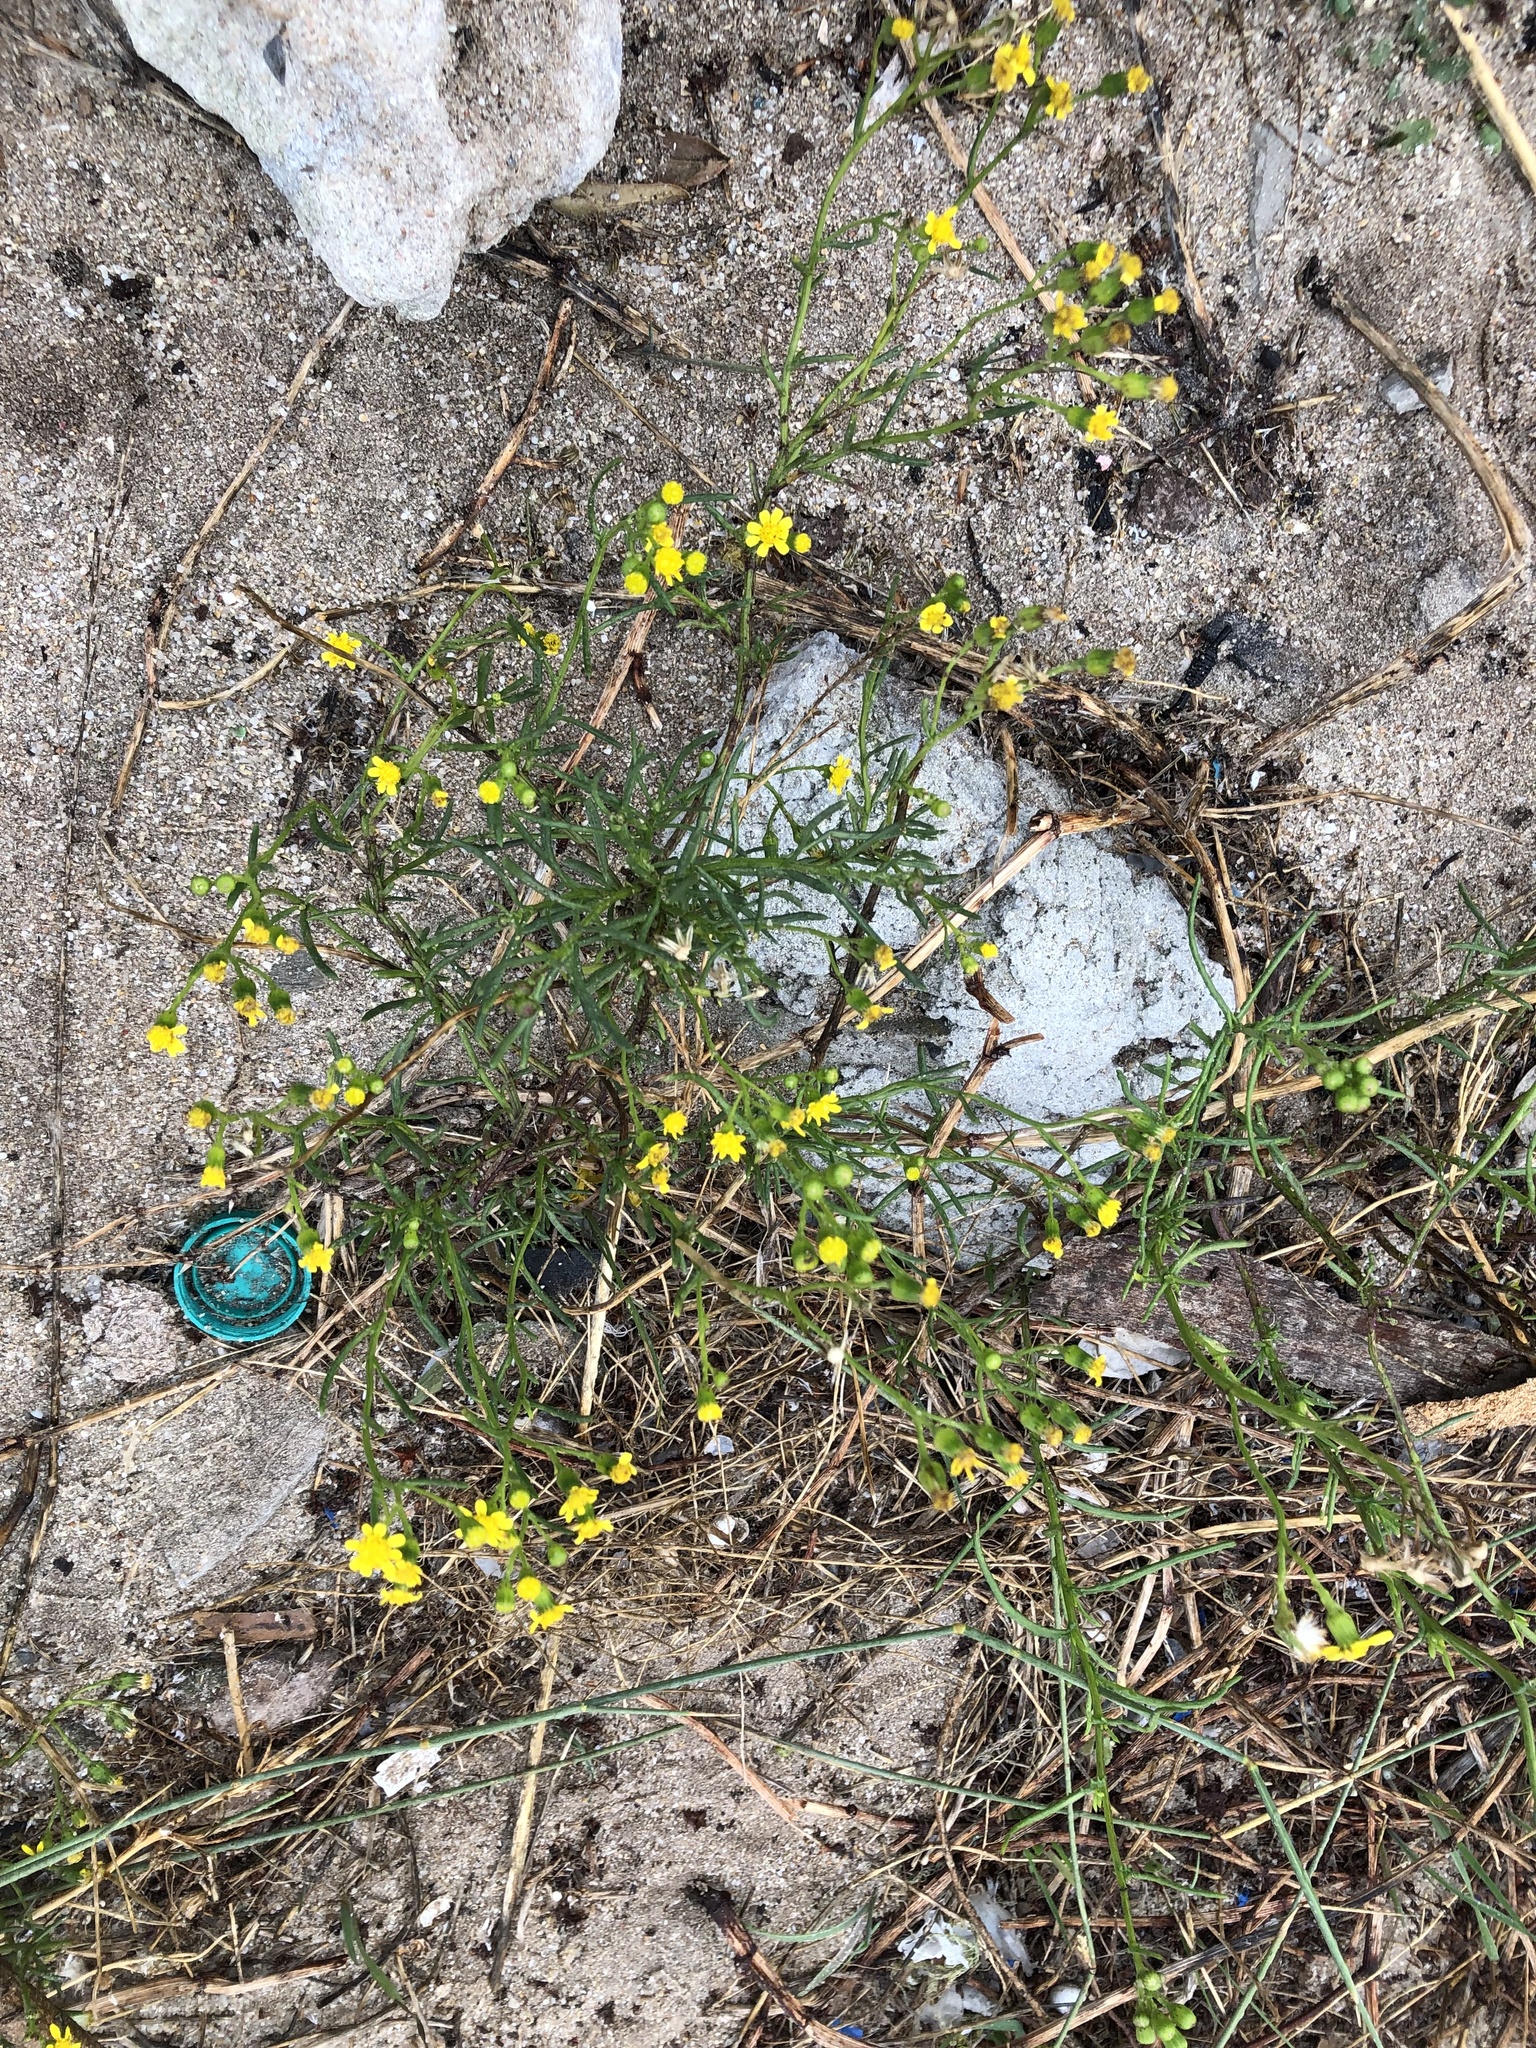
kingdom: Plantae
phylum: Tracheophyta
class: Magnoliopsida
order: Asterales
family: Asteraceae
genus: Senecio
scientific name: Senecio burchellii
